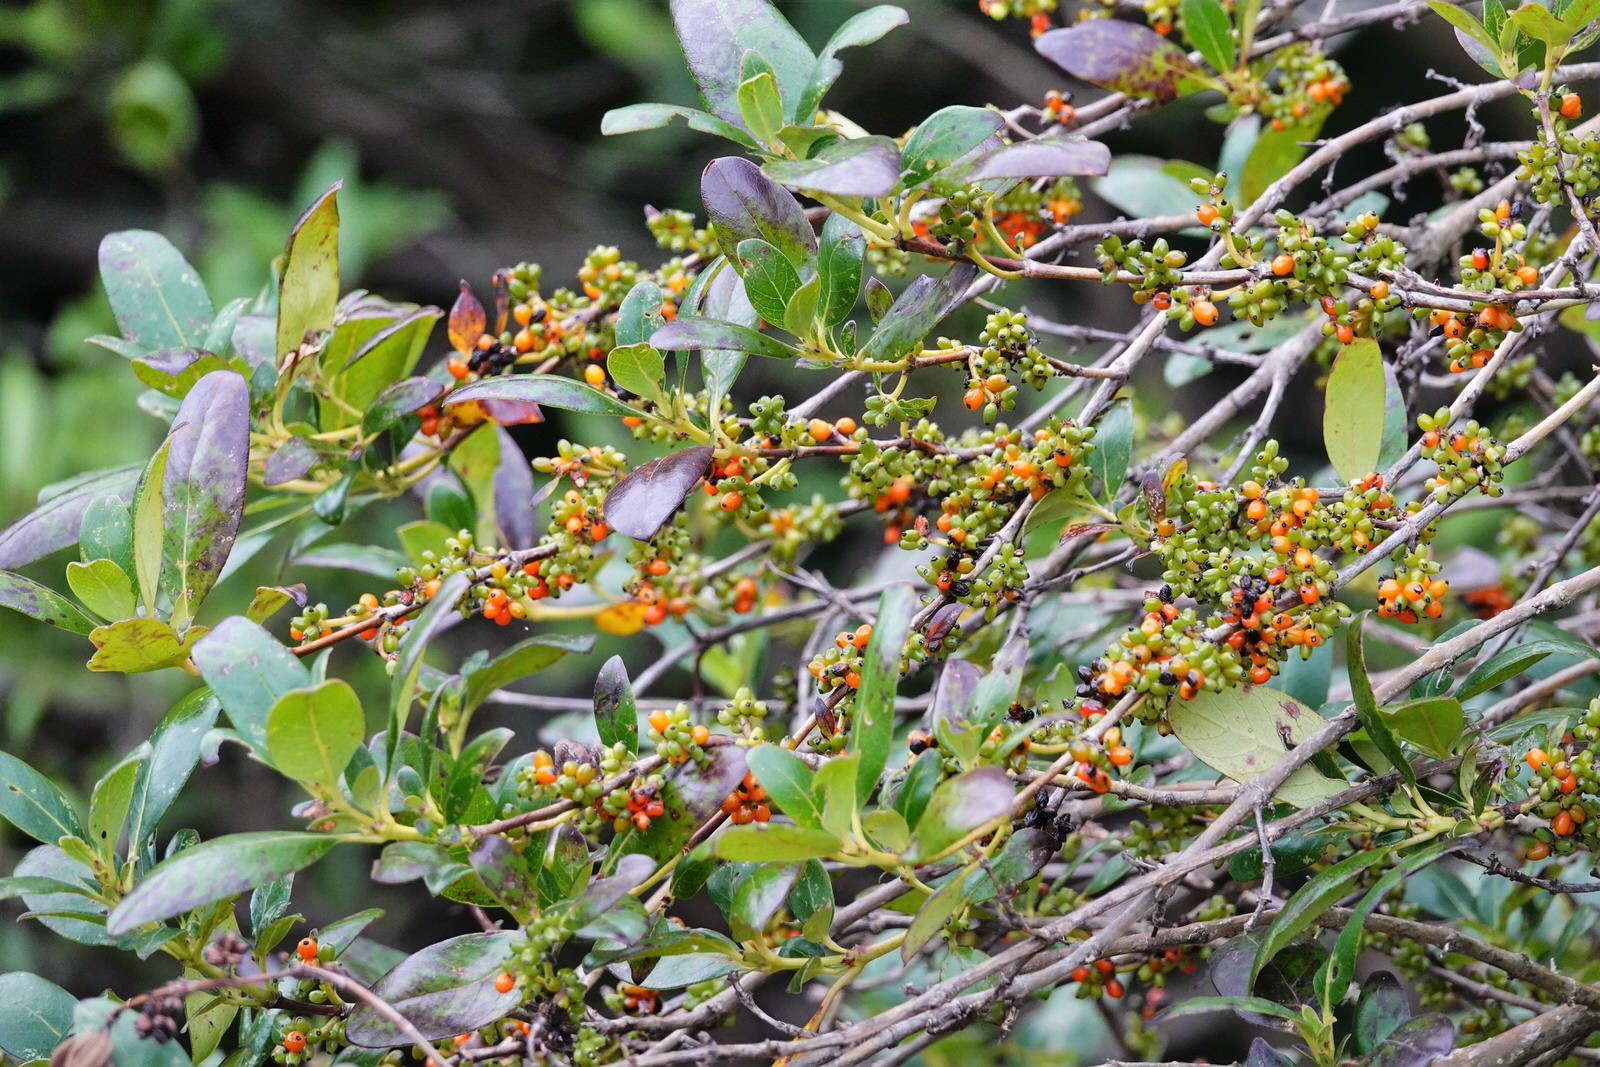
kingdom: Plantae
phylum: Tracheophyta
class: Magnoliopsida
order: Gentianales
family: Rubiaceae
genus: Coprosma
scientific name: Coprosma robusta
